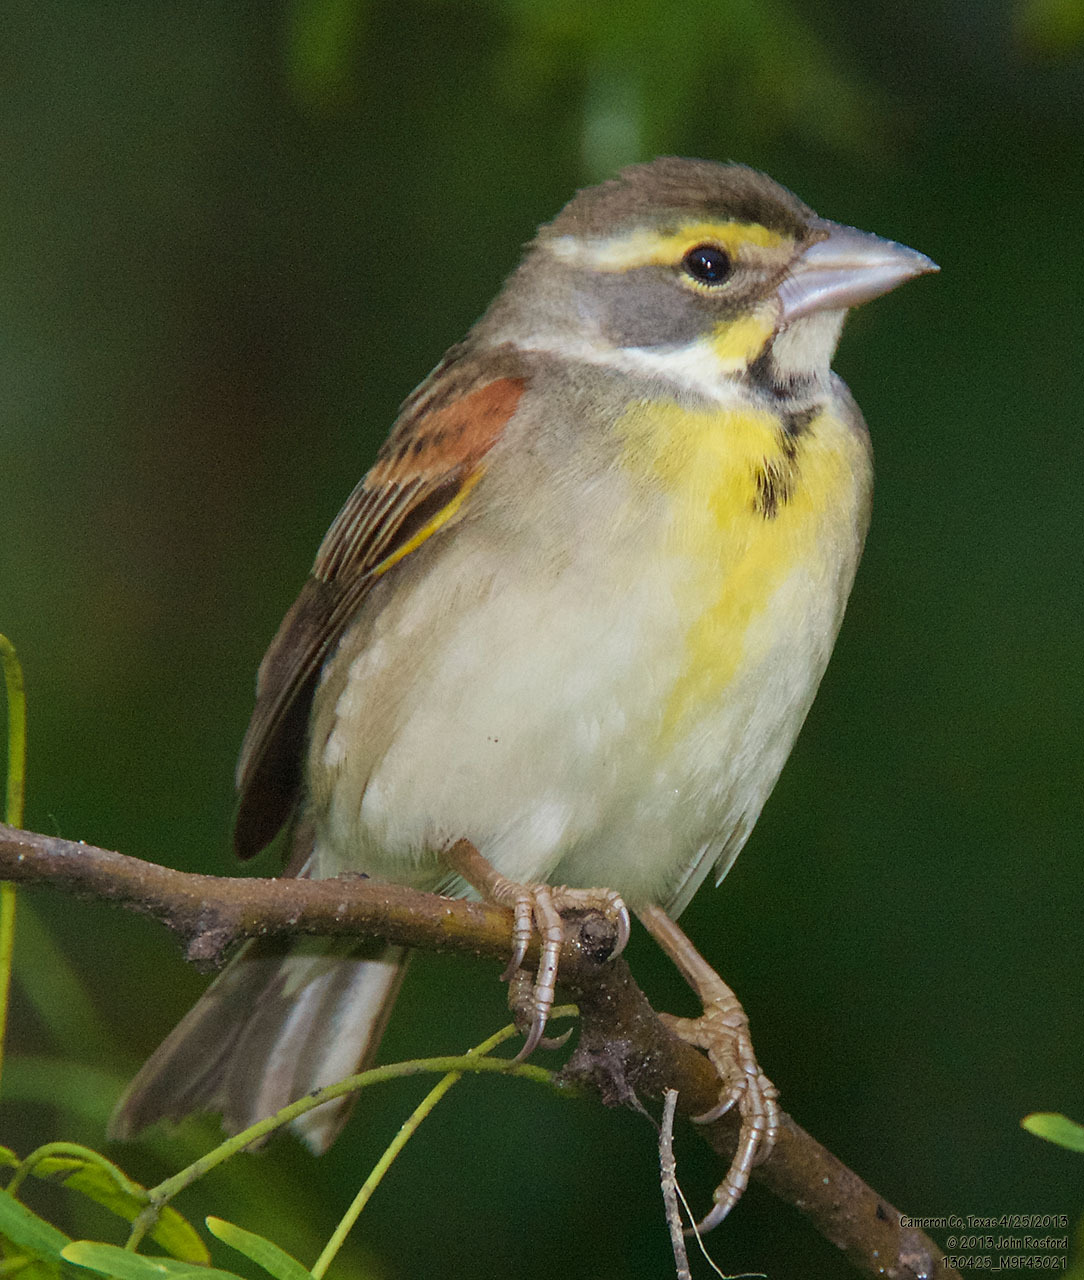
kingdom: Animalia
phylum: Chordata
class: Aves
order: Passeriformes
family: Cardinalidae
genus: Spiza
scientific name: Spiza americana
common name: Dickcissel
